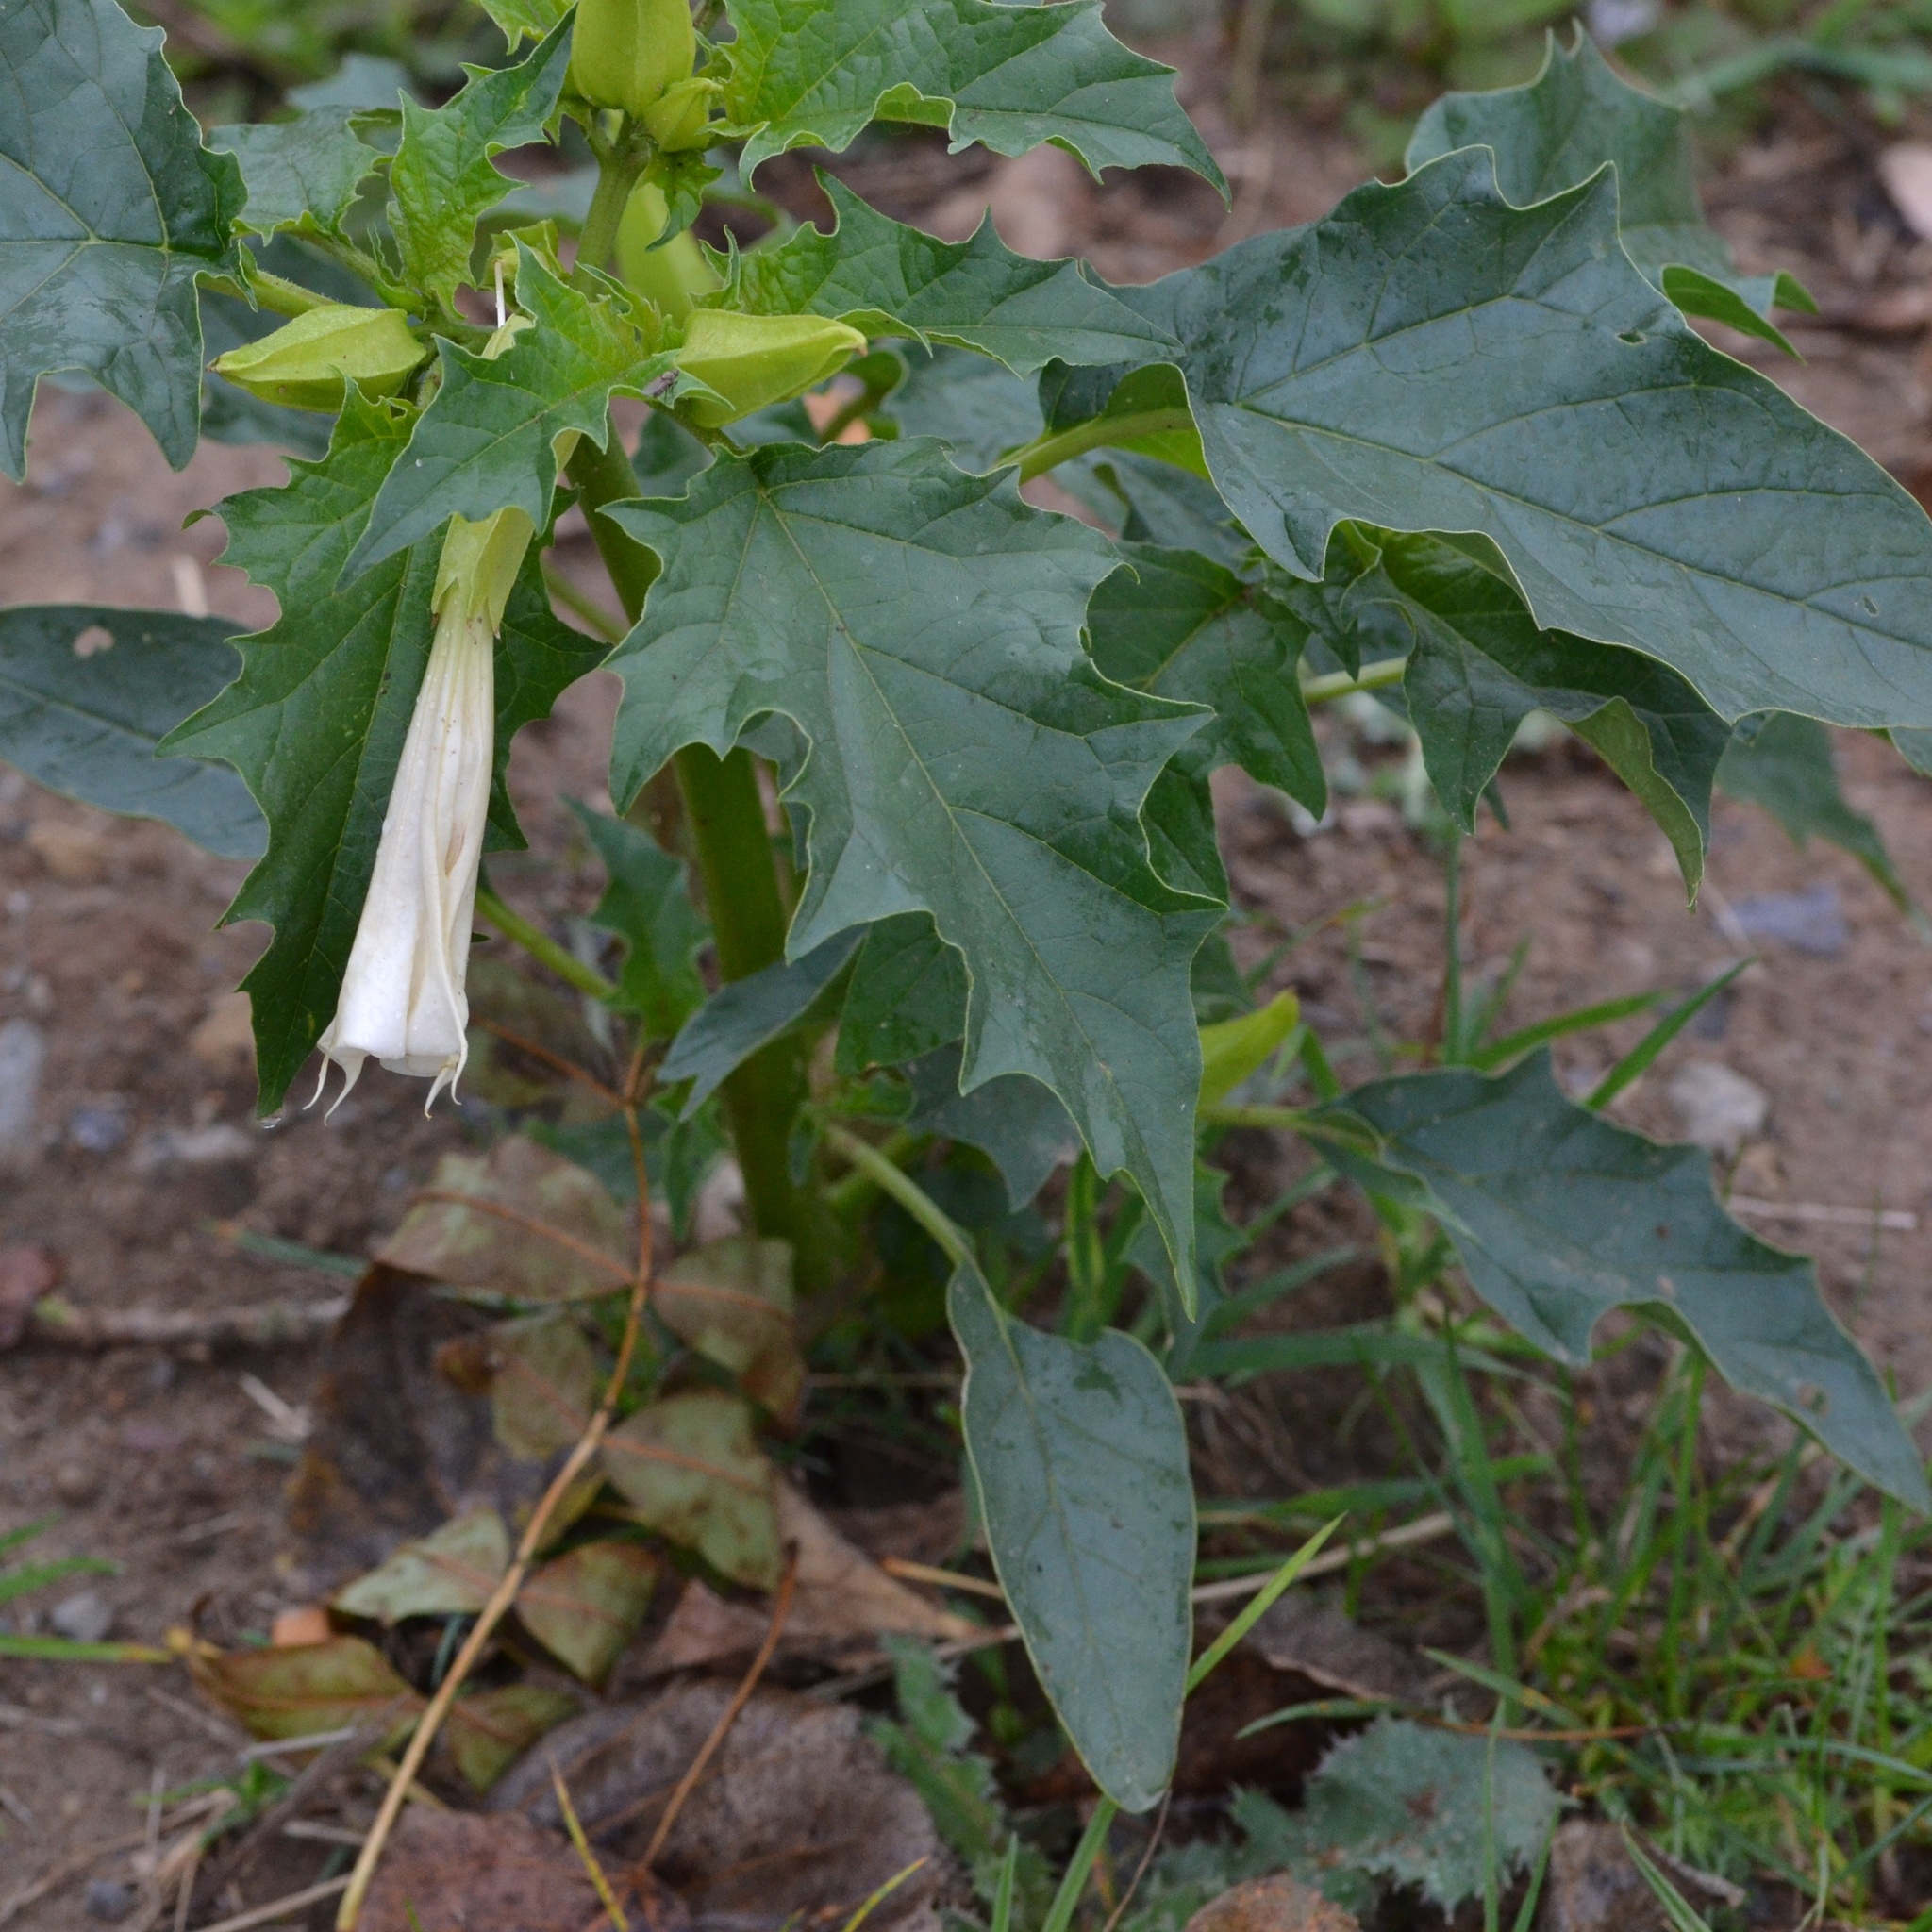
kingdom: Plantae
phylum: Tracheophyta
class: Magnoliopsida
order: Solanales
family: Solanaceae
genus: Datura
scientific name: Datura stramonium
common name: Thorn-apple
